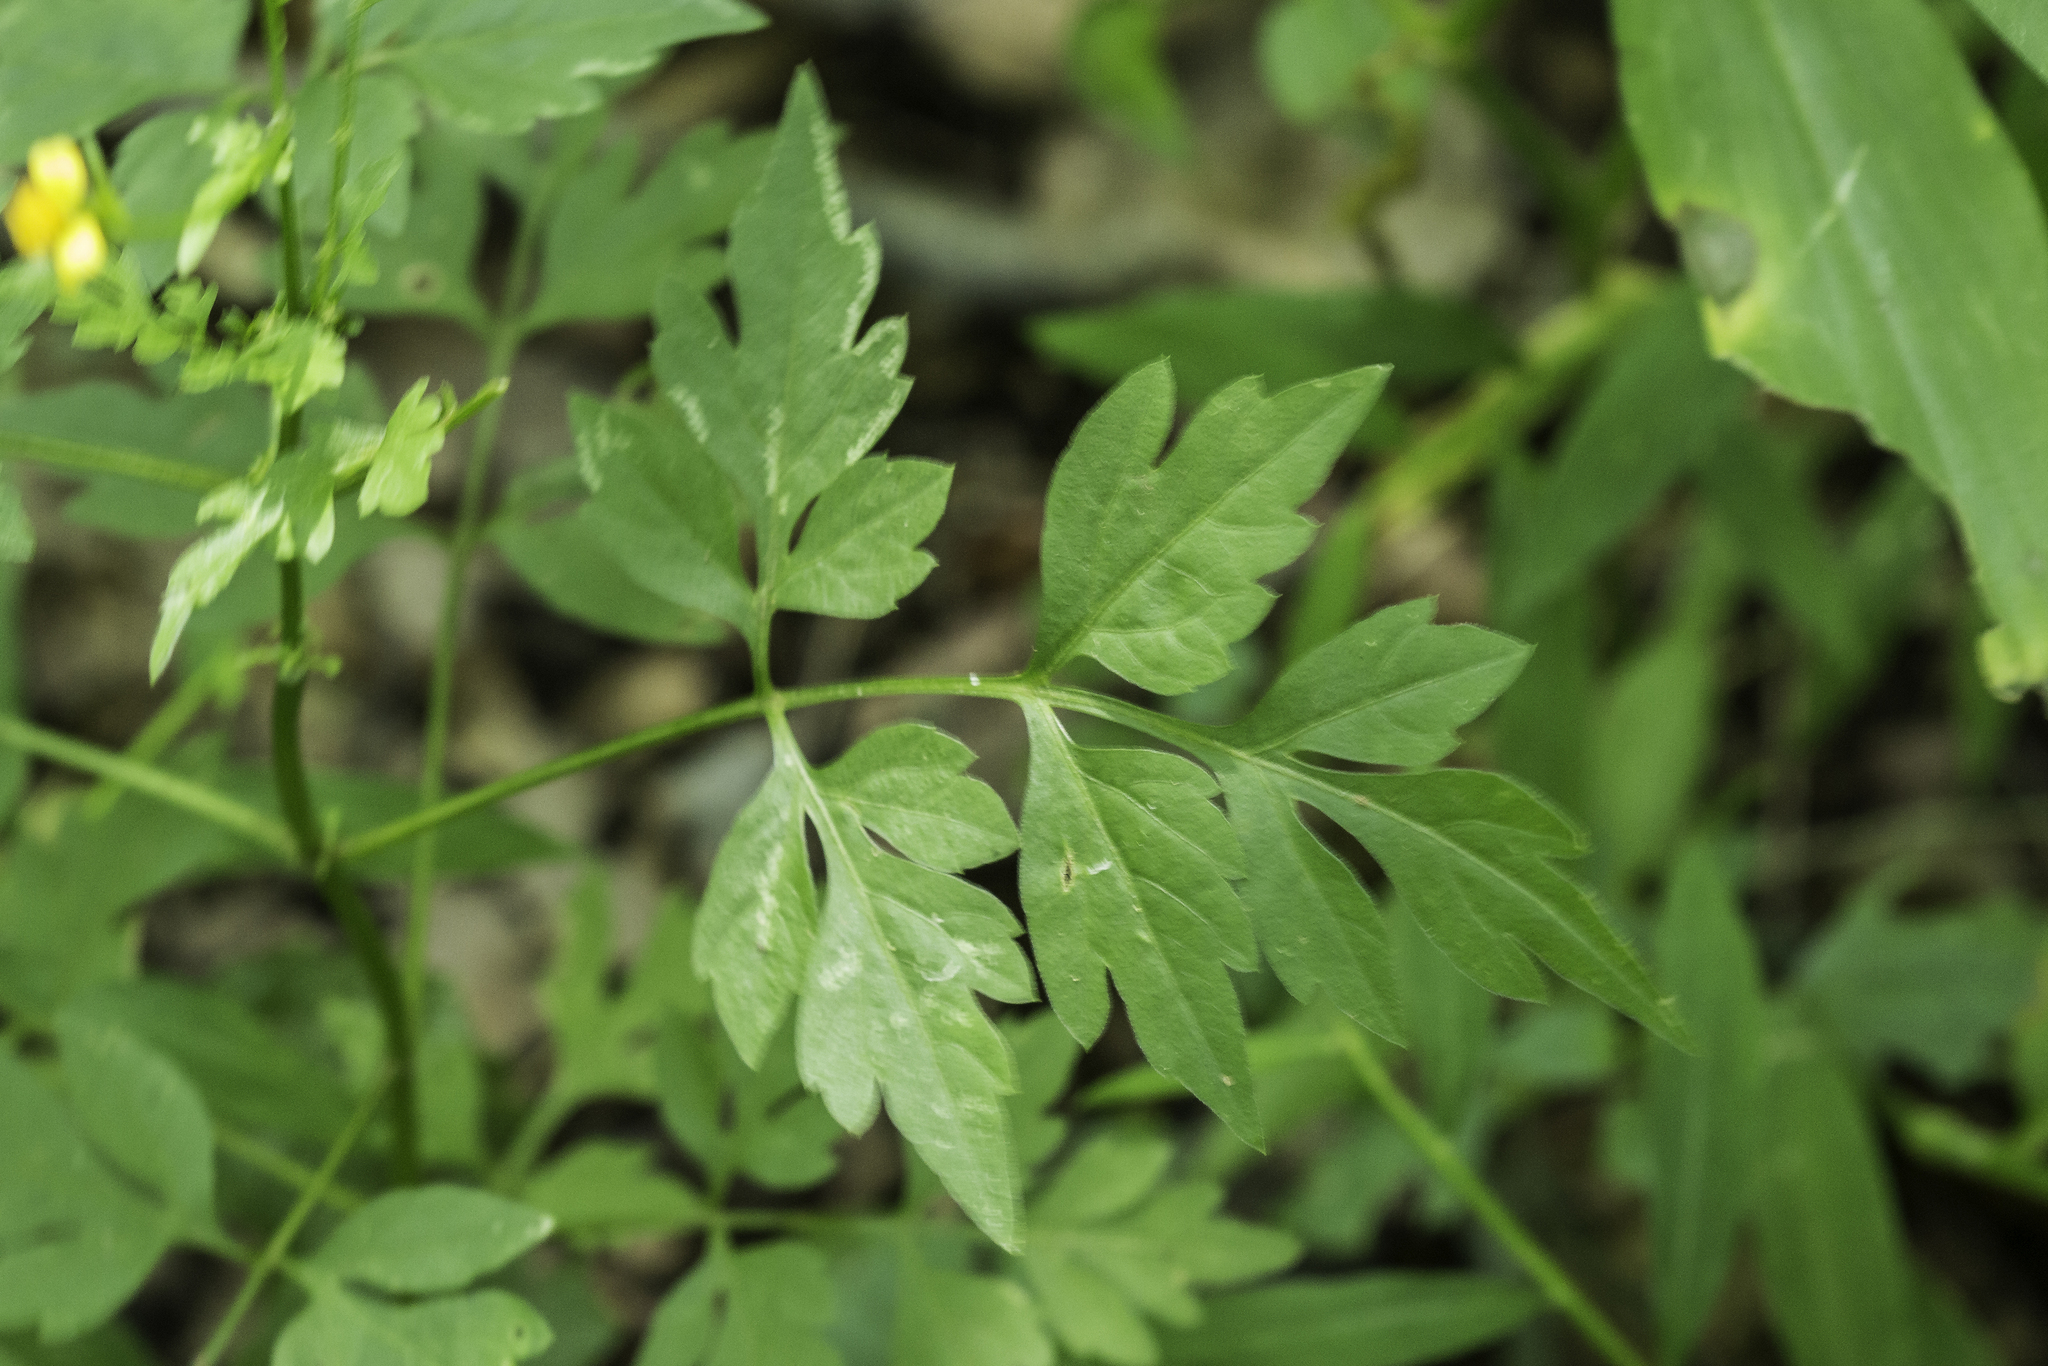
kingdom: Plantae
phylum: Tracheophyta
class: Magnoliopsida
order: Asterales
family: Asteraceae
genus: Bidens
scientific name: Bidens bipinnata
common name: Spanish-needles
